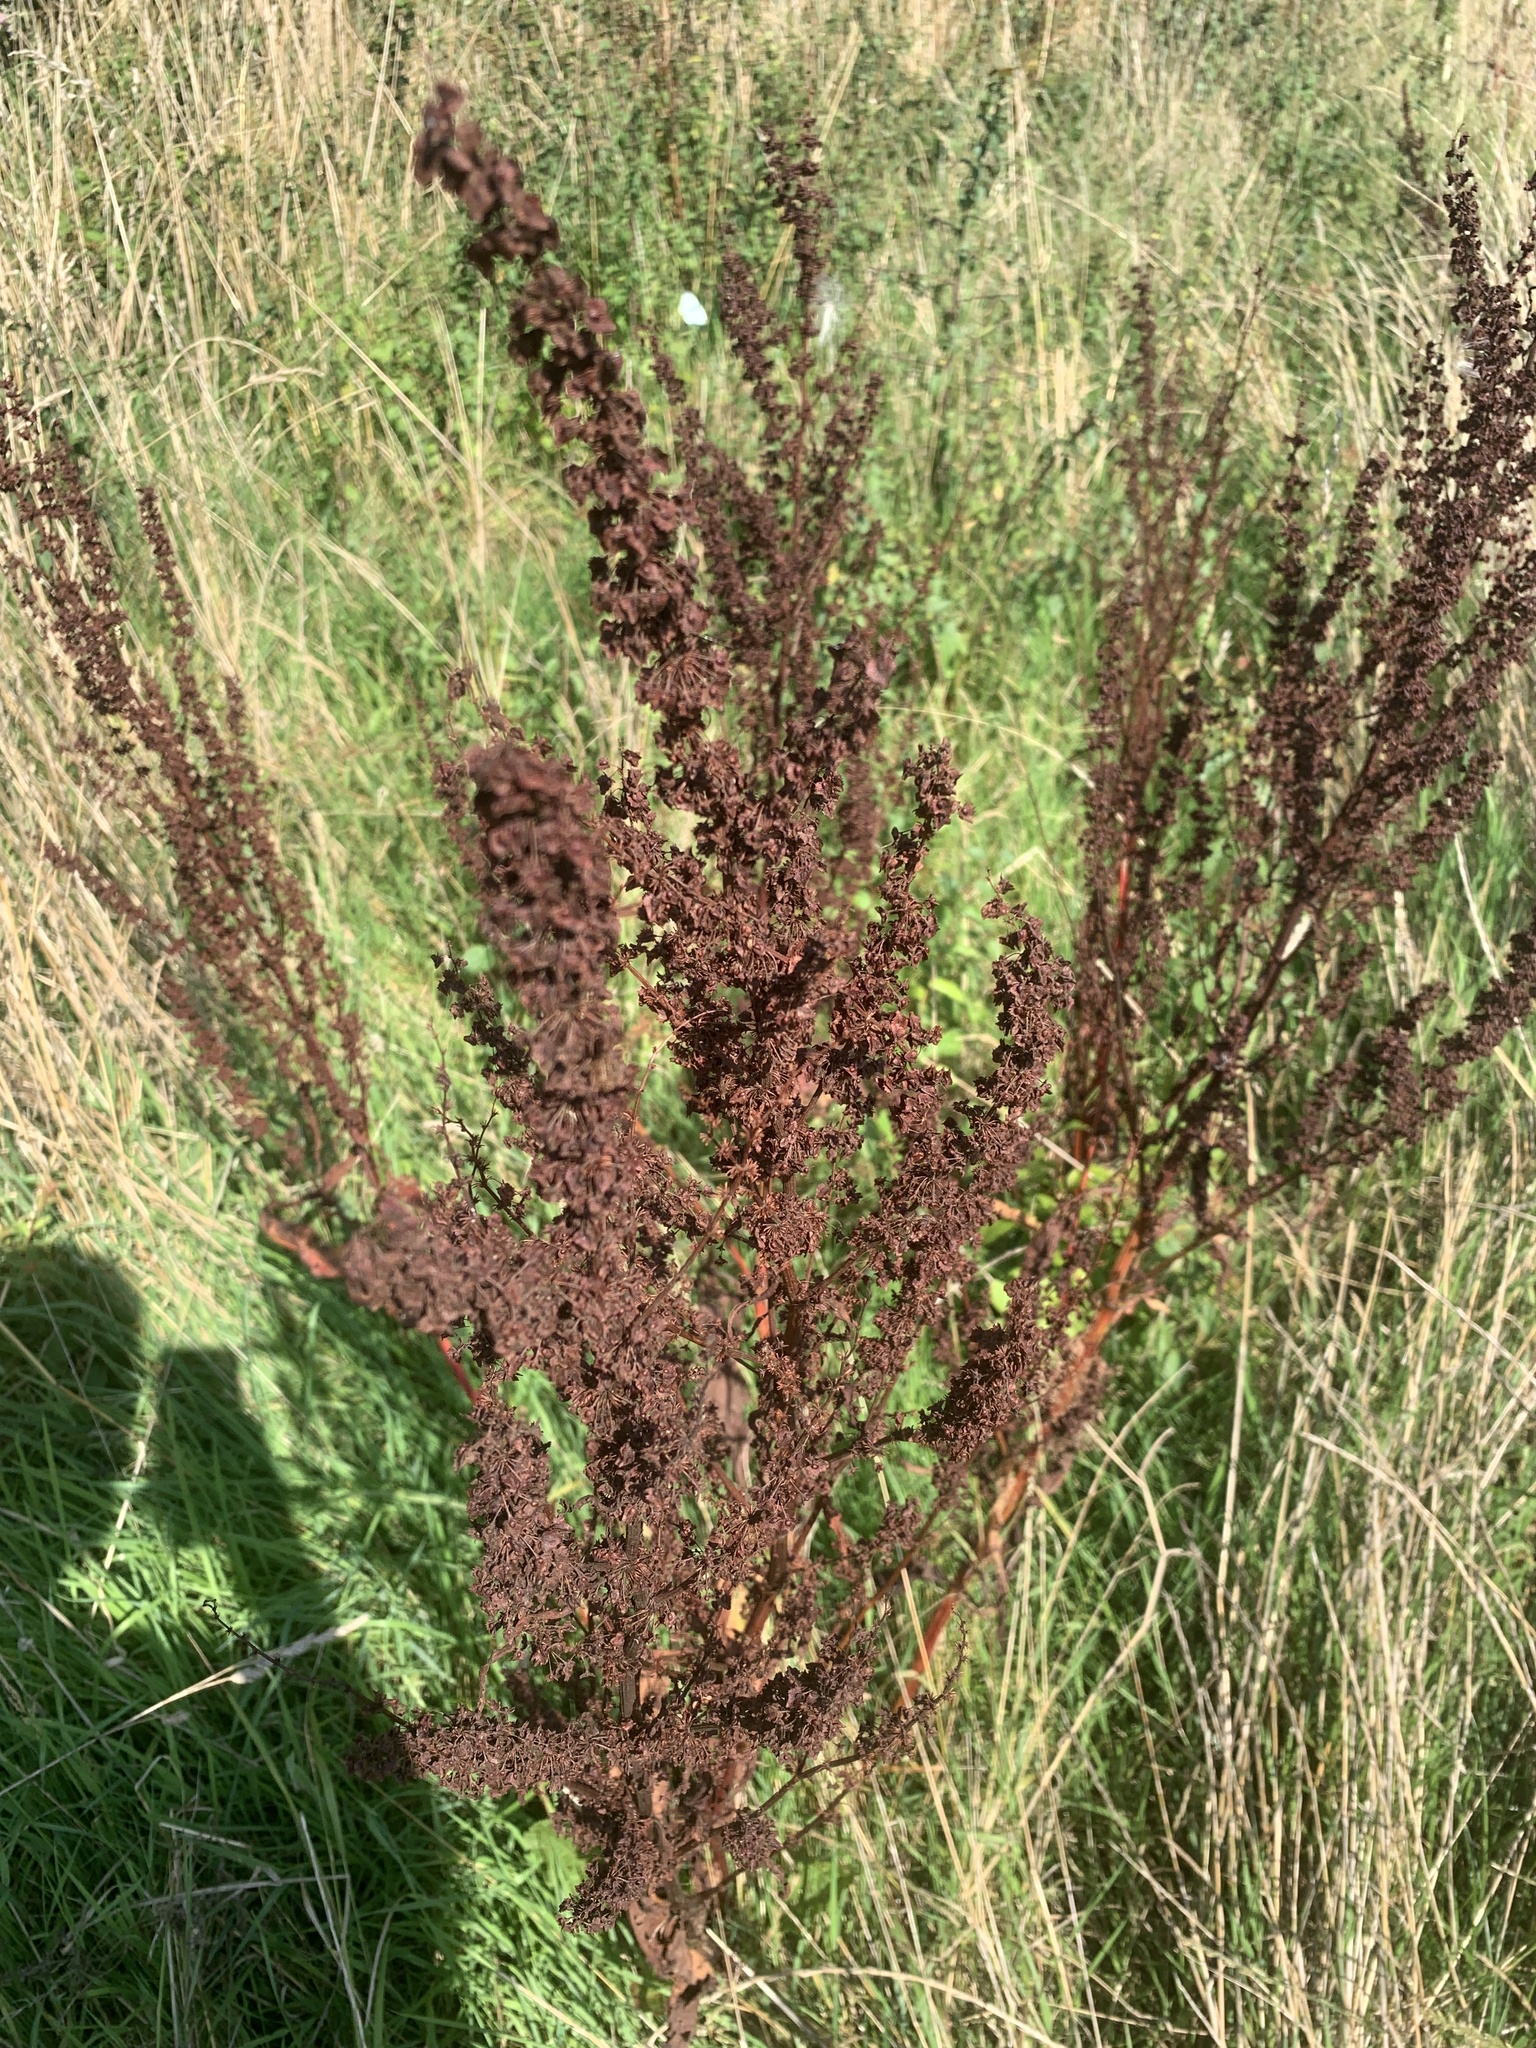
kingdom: Plantae
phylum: Tracheophyta
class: Magnoliopsida
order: Caryophyllales
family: Polygonaceae
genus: Rumex
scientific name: Rumex crispus
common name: Curled dock
